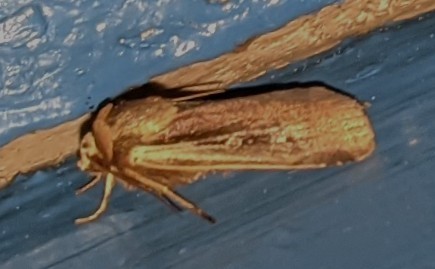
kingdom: Animalia
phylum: Arthropoda
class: Insecta
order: Lepidoptera
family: Noctuidae
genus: Ochropleura
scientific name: Ochropleura implecta
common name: Flame-shouldered dart
